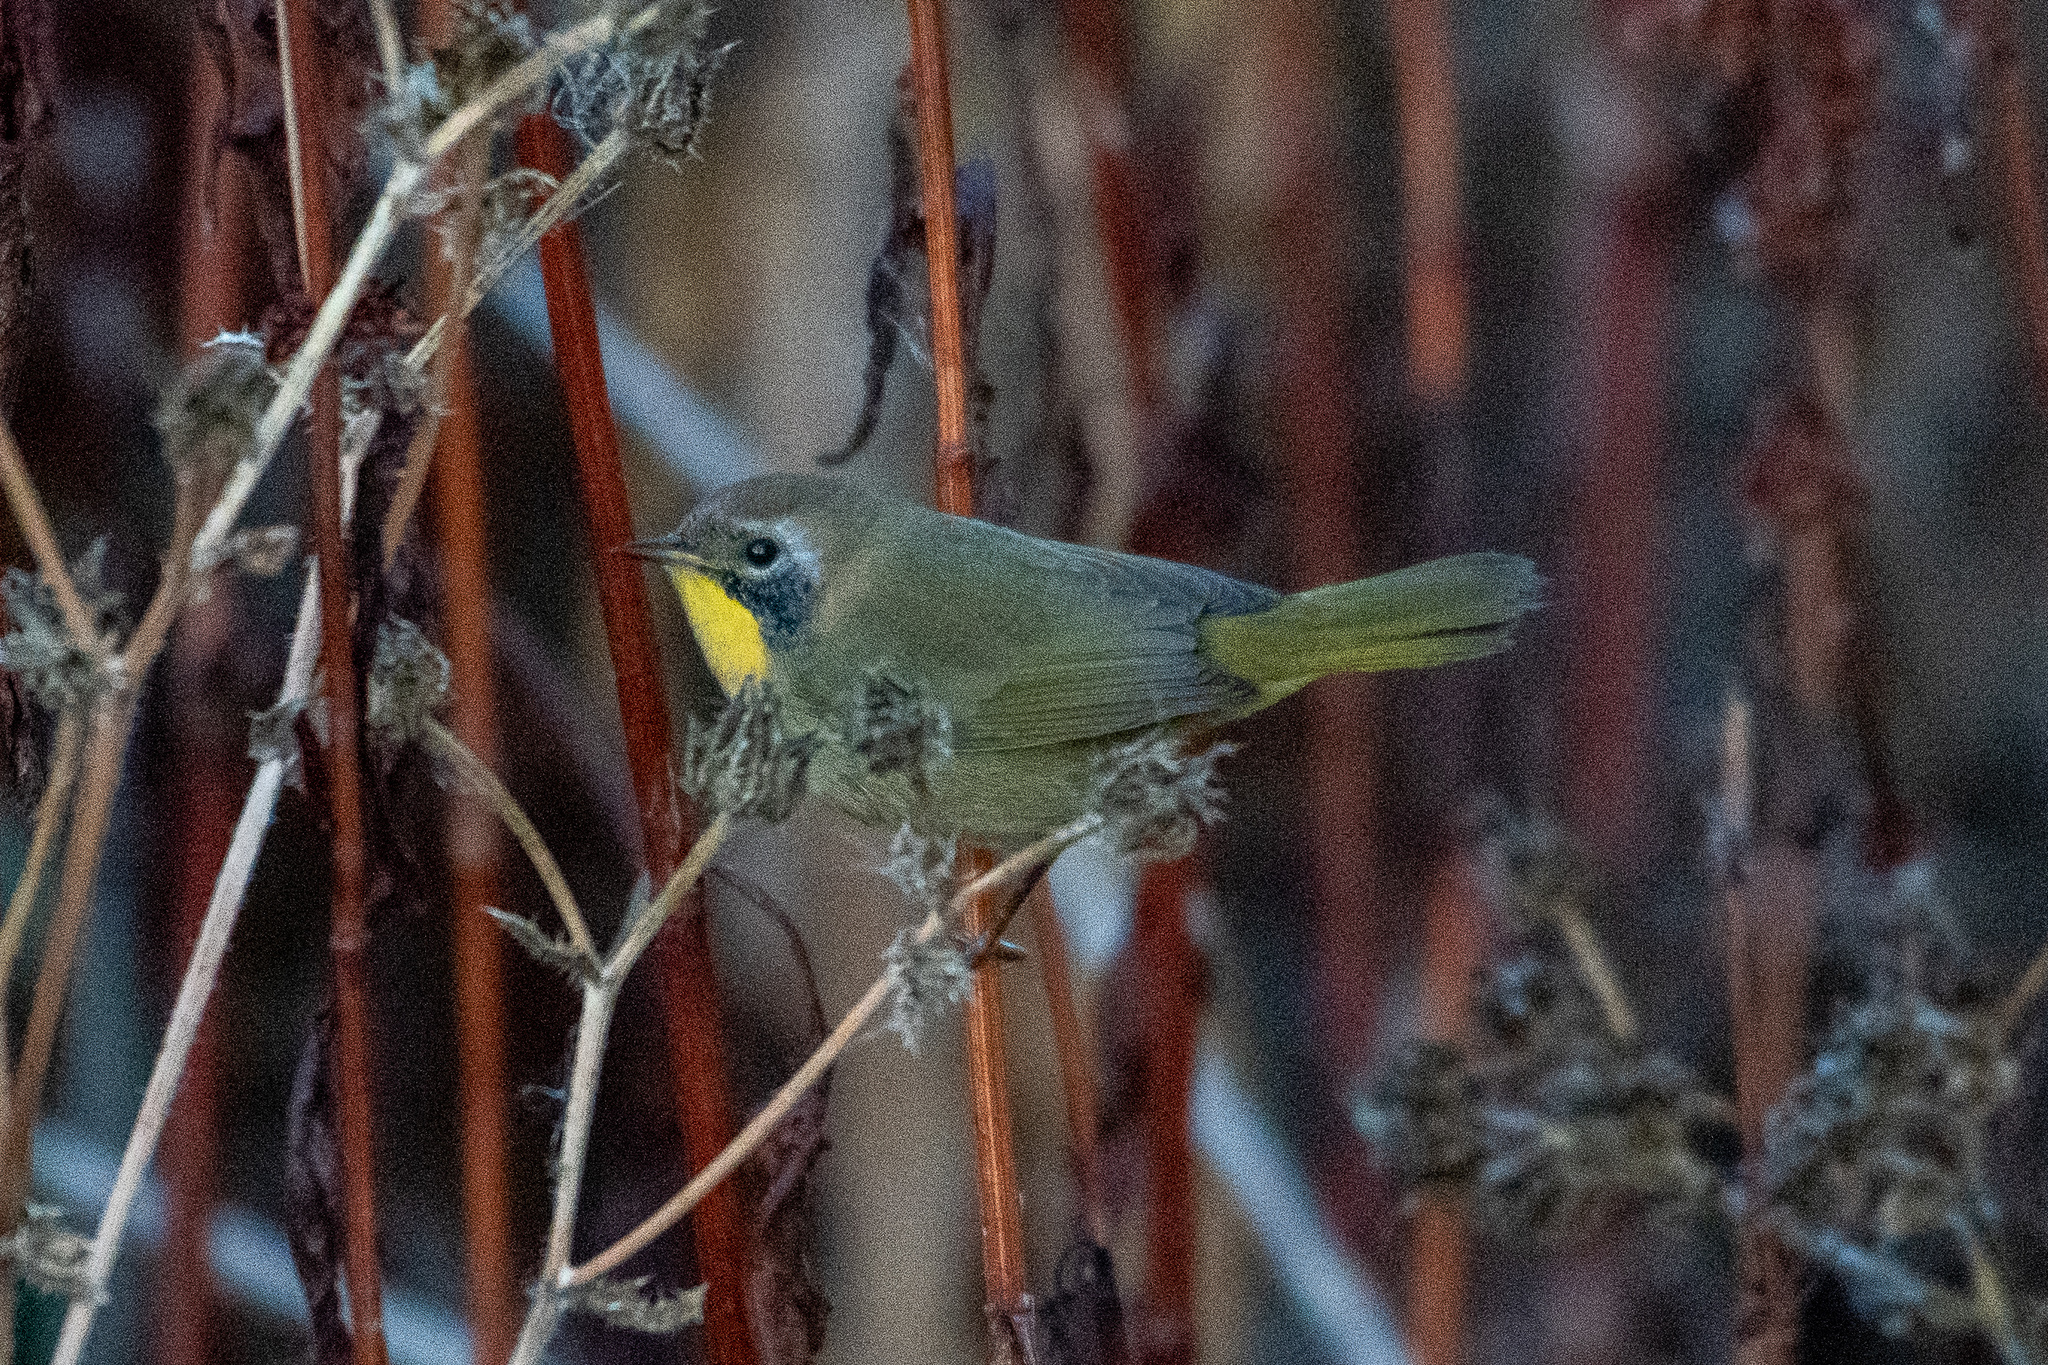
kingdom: Animalia
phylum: Chordata
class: Aves
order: Passeriformes
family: Parulidae
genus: Geothlypis
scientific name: Geothlypis trichas
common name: Common yellowthroat
